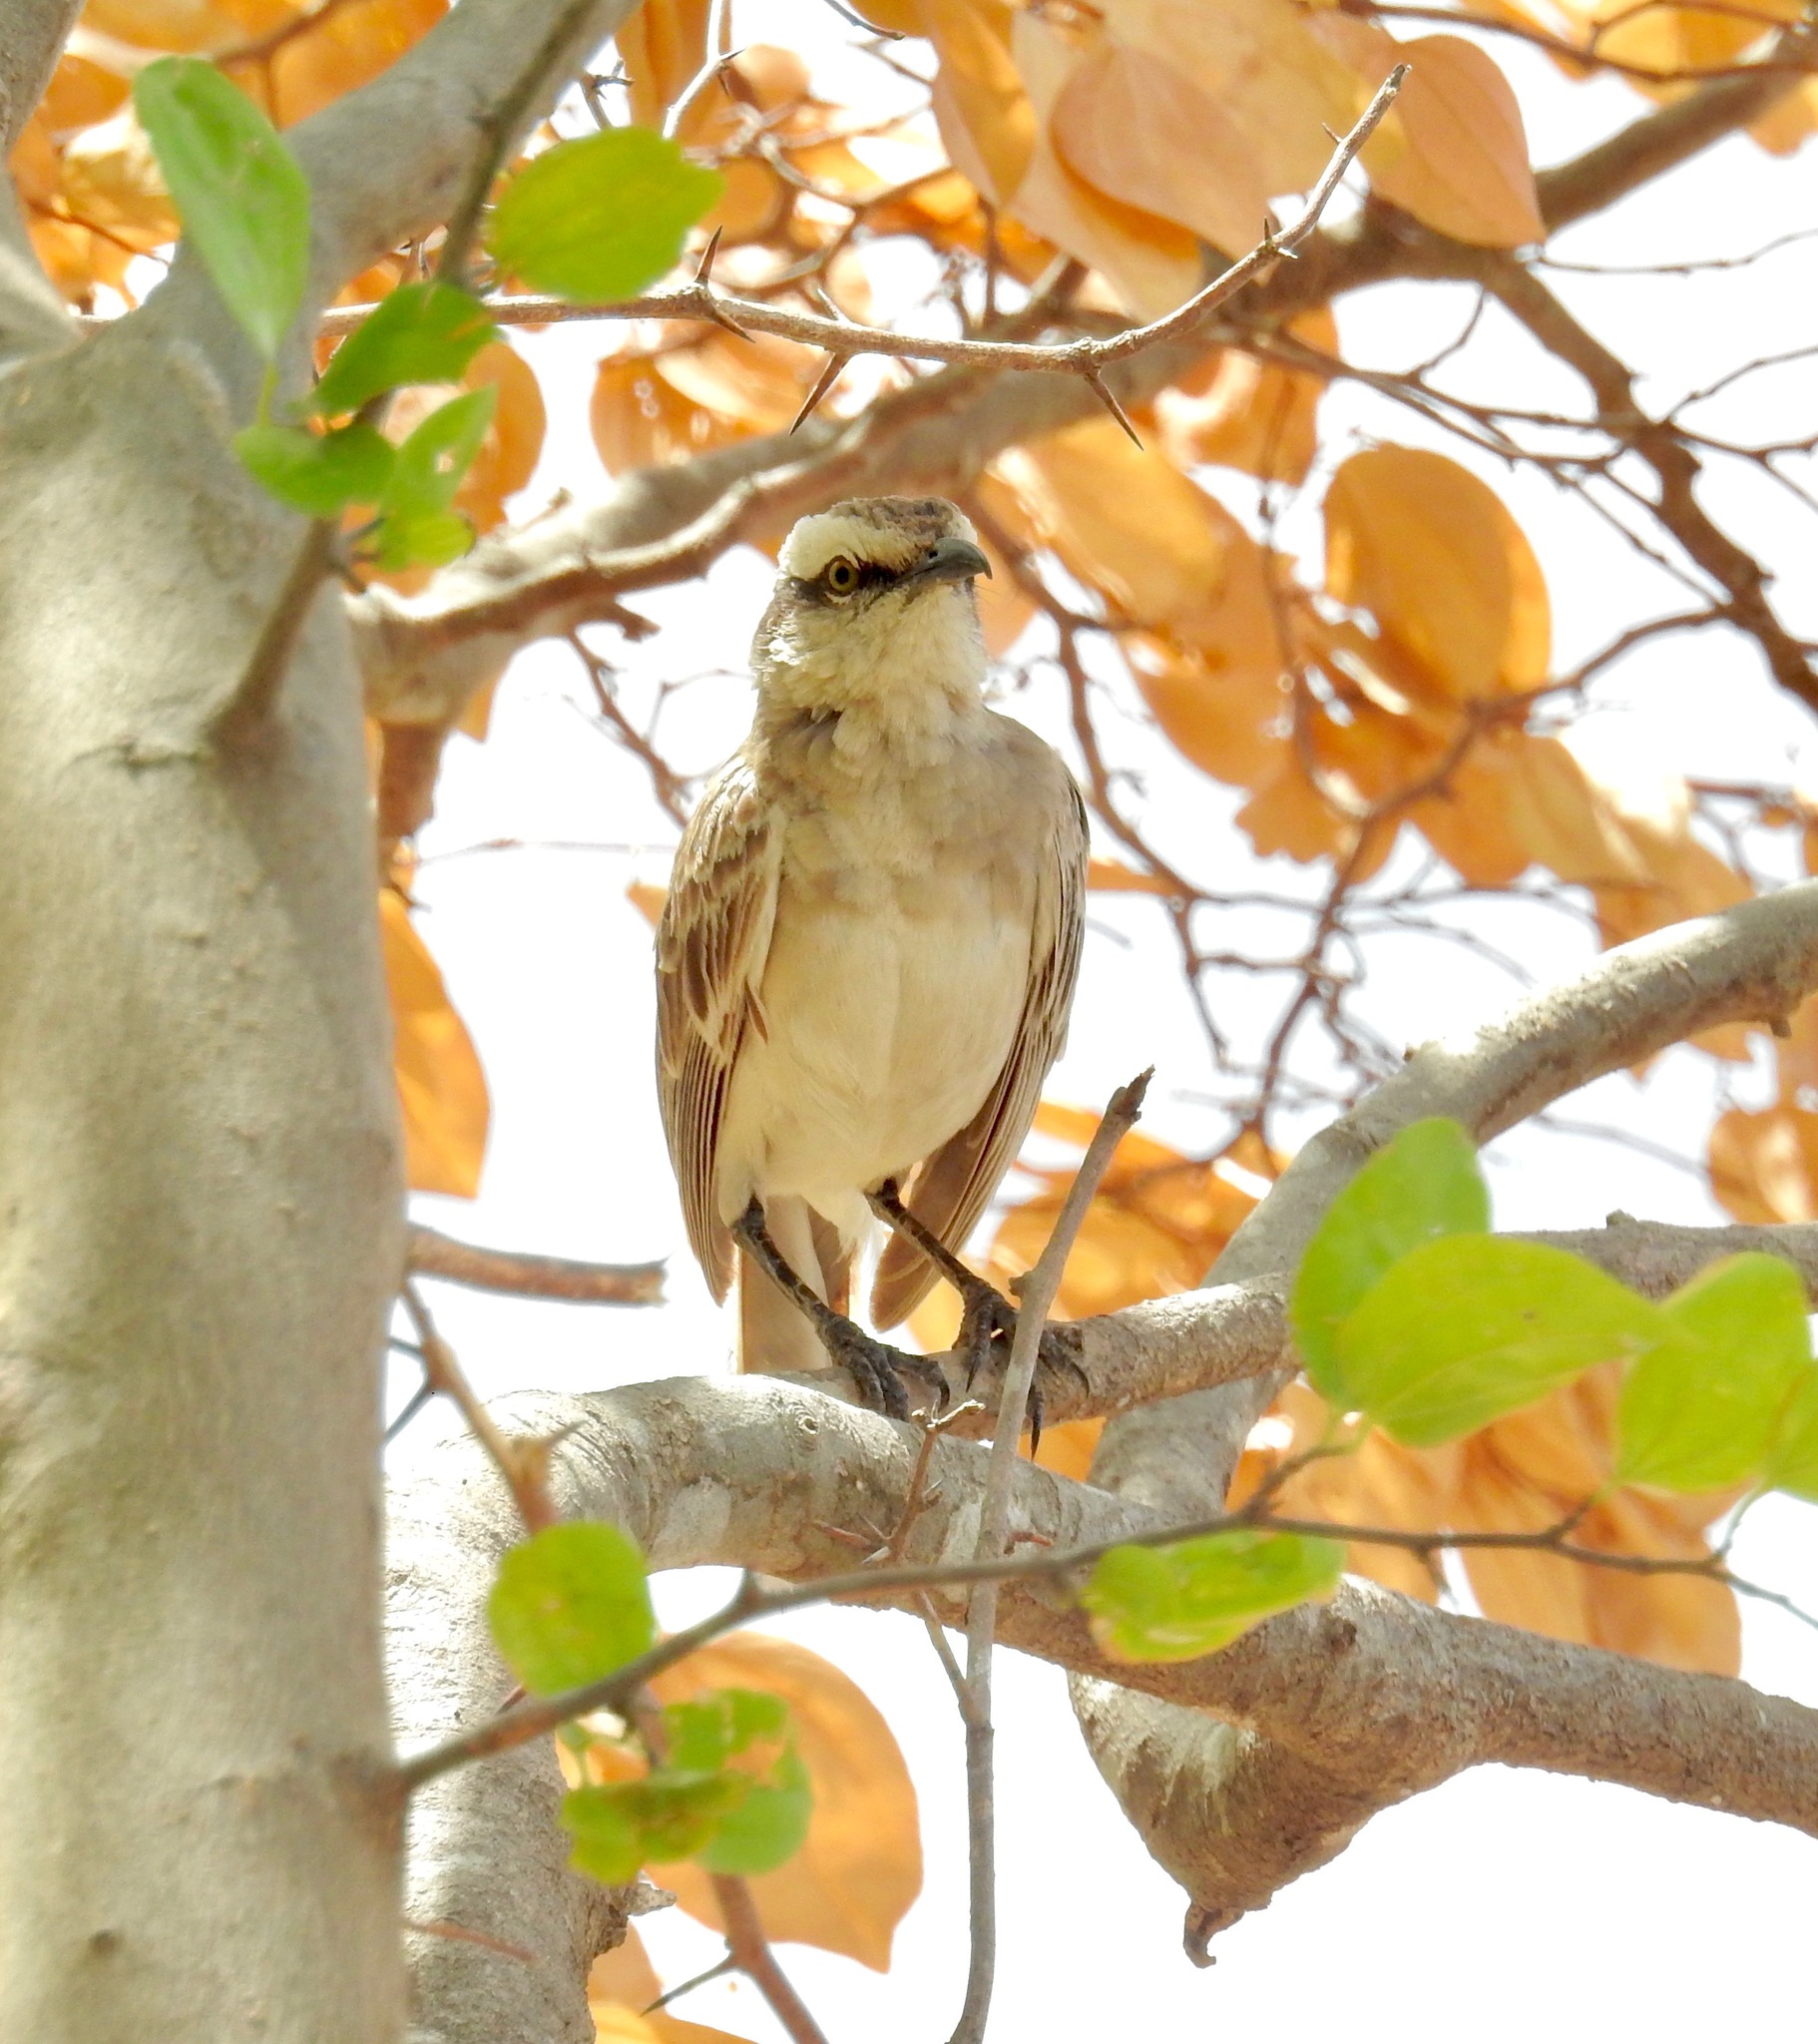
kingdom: Animalia
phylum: Chordata
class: Aves
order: Passeriformes
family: Mimidae
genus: Mimus
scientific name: Mimus saturninus
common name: Chalk-browed mockingbird
